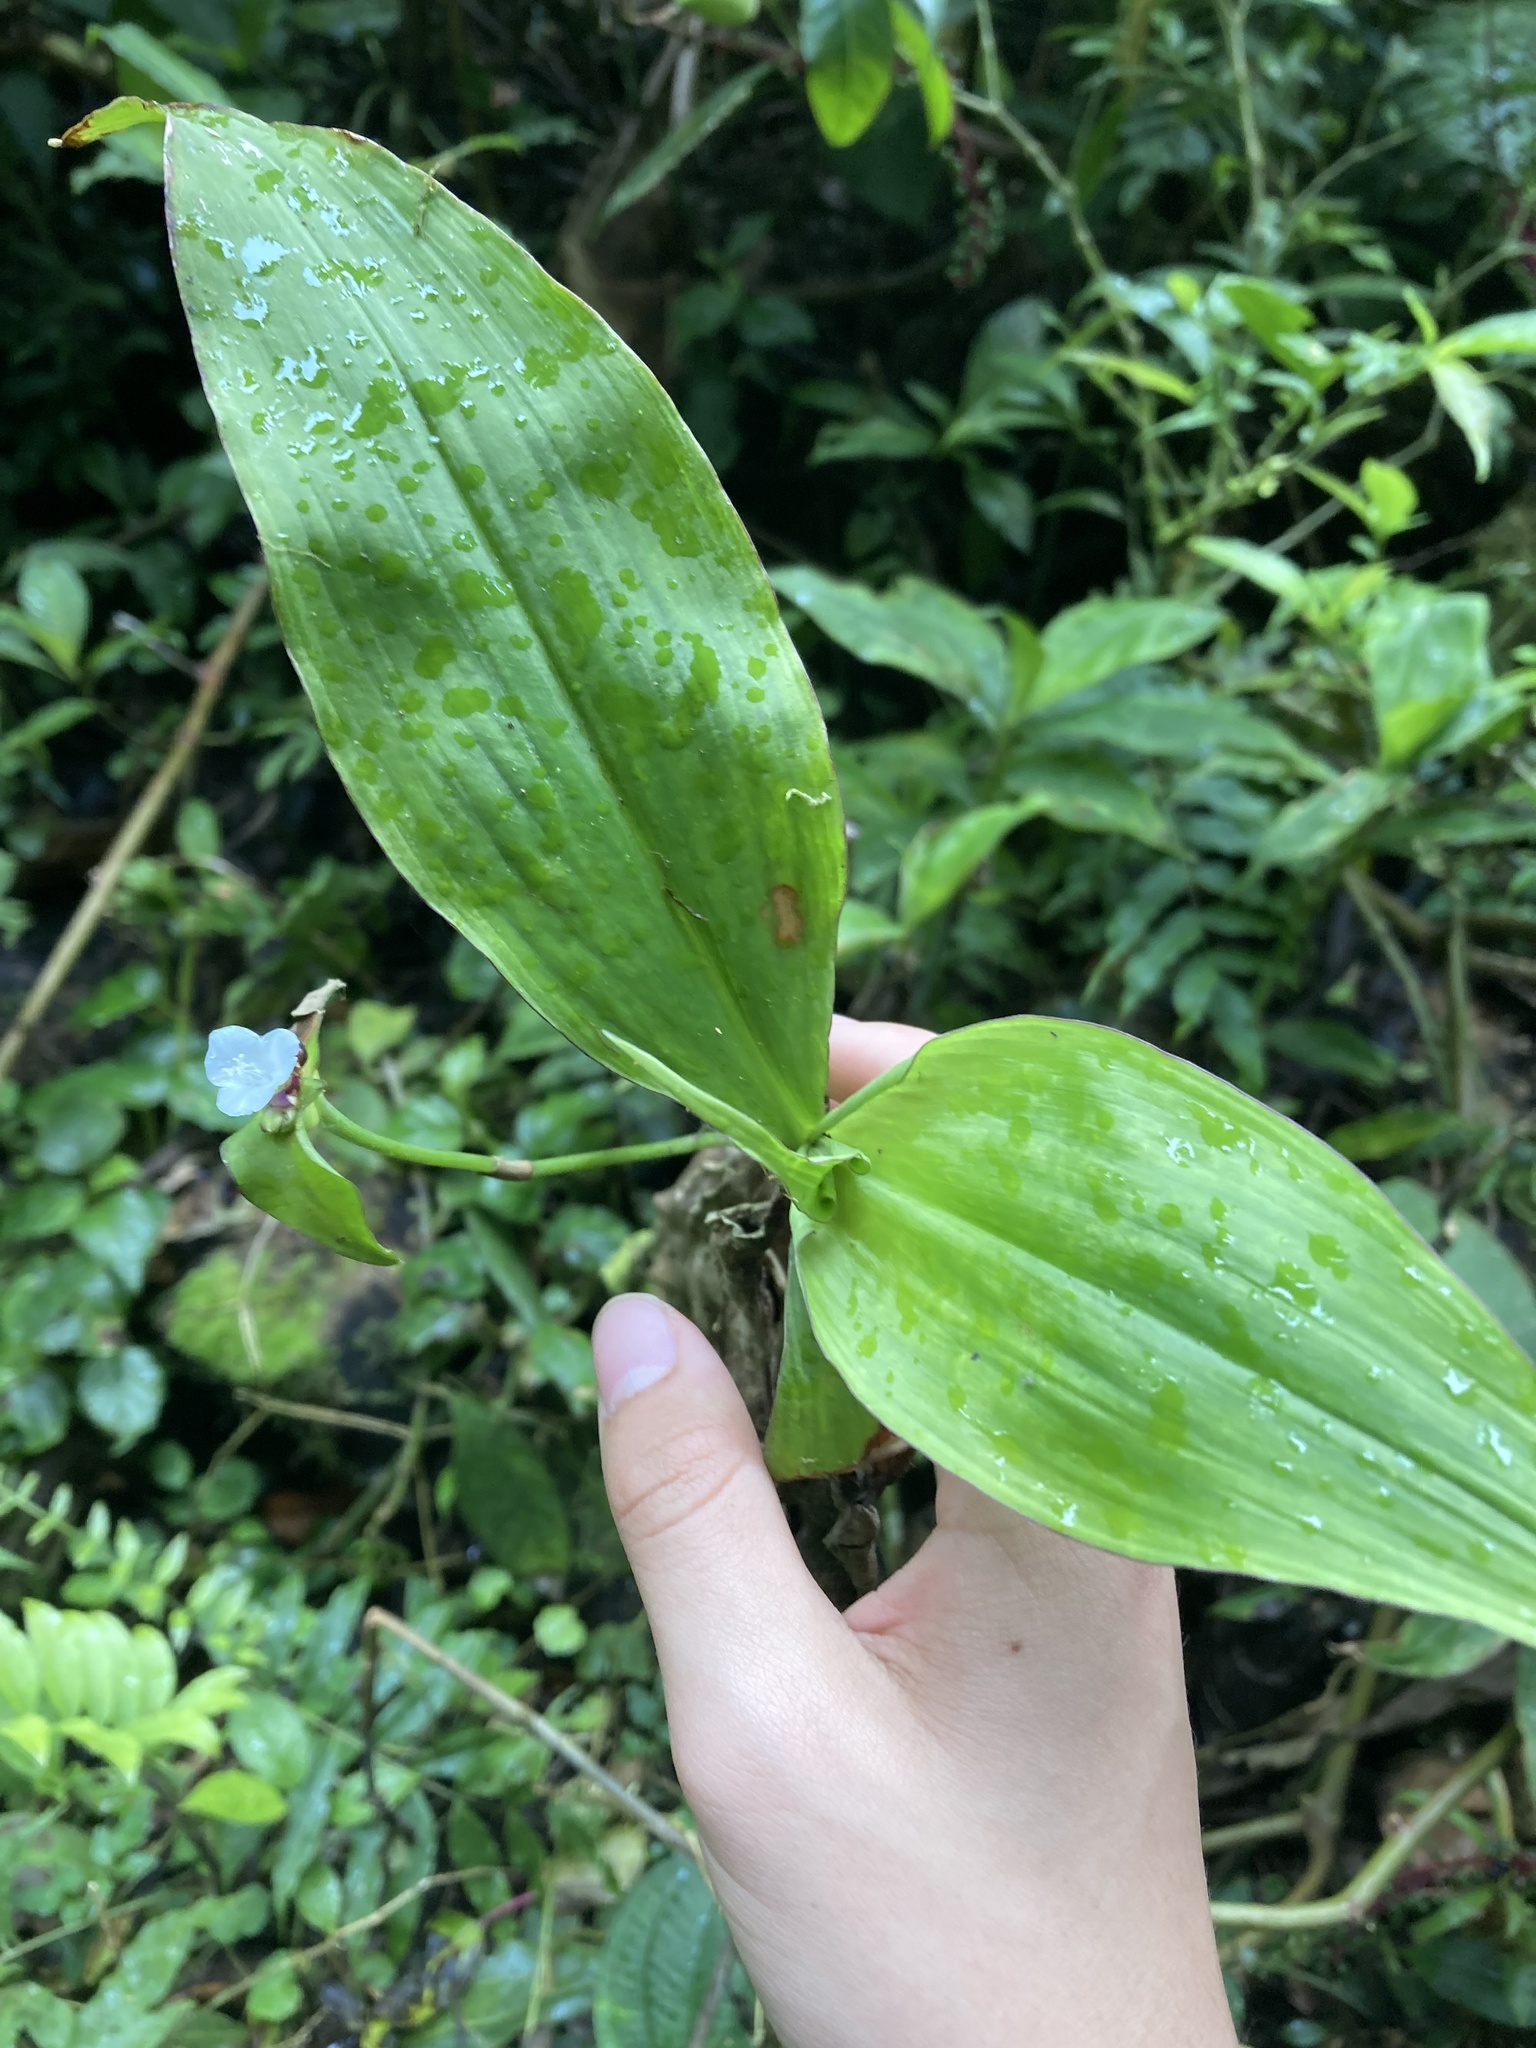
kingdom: Plantae
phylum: Tracheophyta
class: Liliopsida
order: Commelinales
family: Commelinaceae
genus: Tradescantia
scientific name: Tradescantia zanonia
